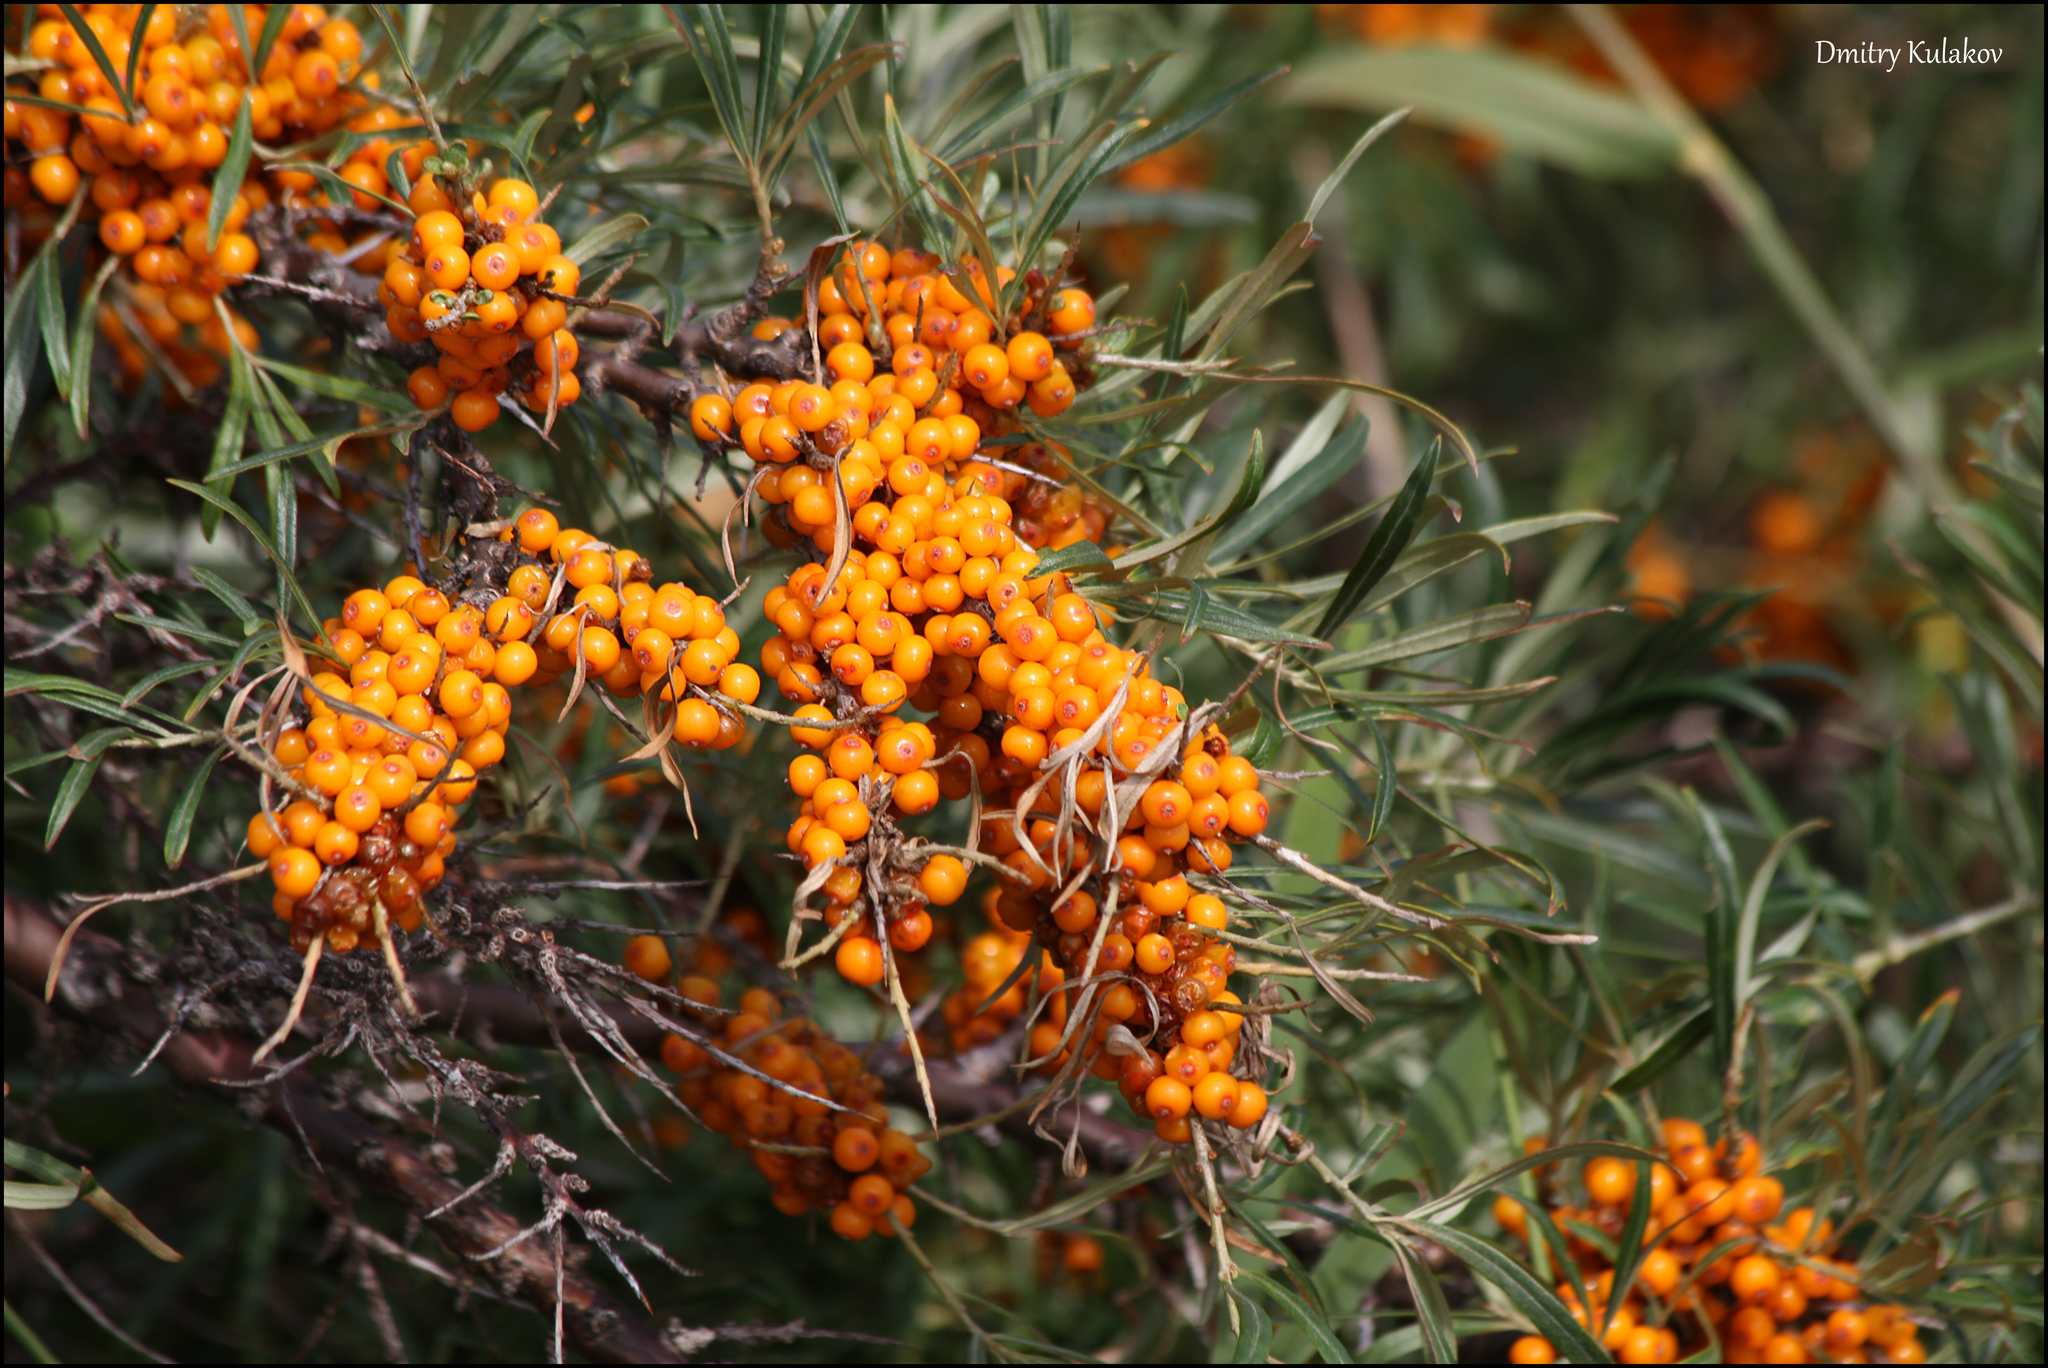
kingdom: Plantae
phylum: Tracheophyta
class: Magnoliopsida
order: Rosales
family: Elaeagnaceae
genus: Hippophae
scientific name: Hippophae rhamnoides
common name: Sea-buckthorn
